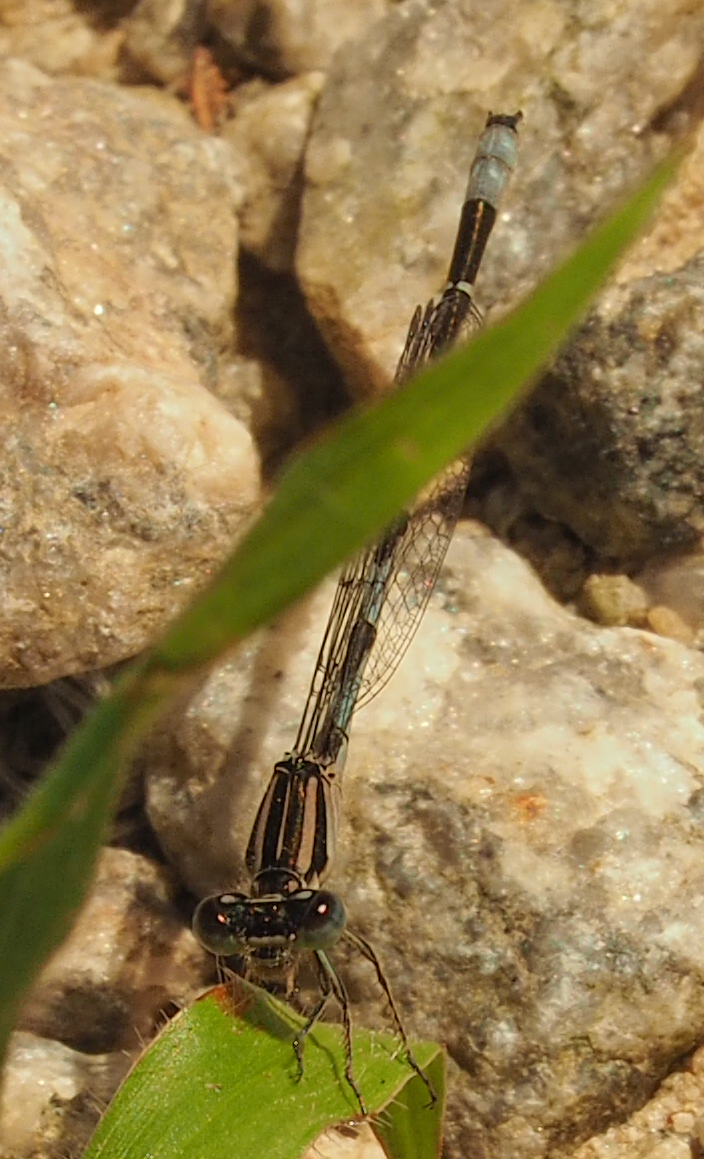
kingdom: Animalia
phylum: Arthropoda
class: Insecta
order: Odonata
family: Coenagrionidae
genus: Enallagma
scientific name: Enallagma durum
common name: Big bluet
